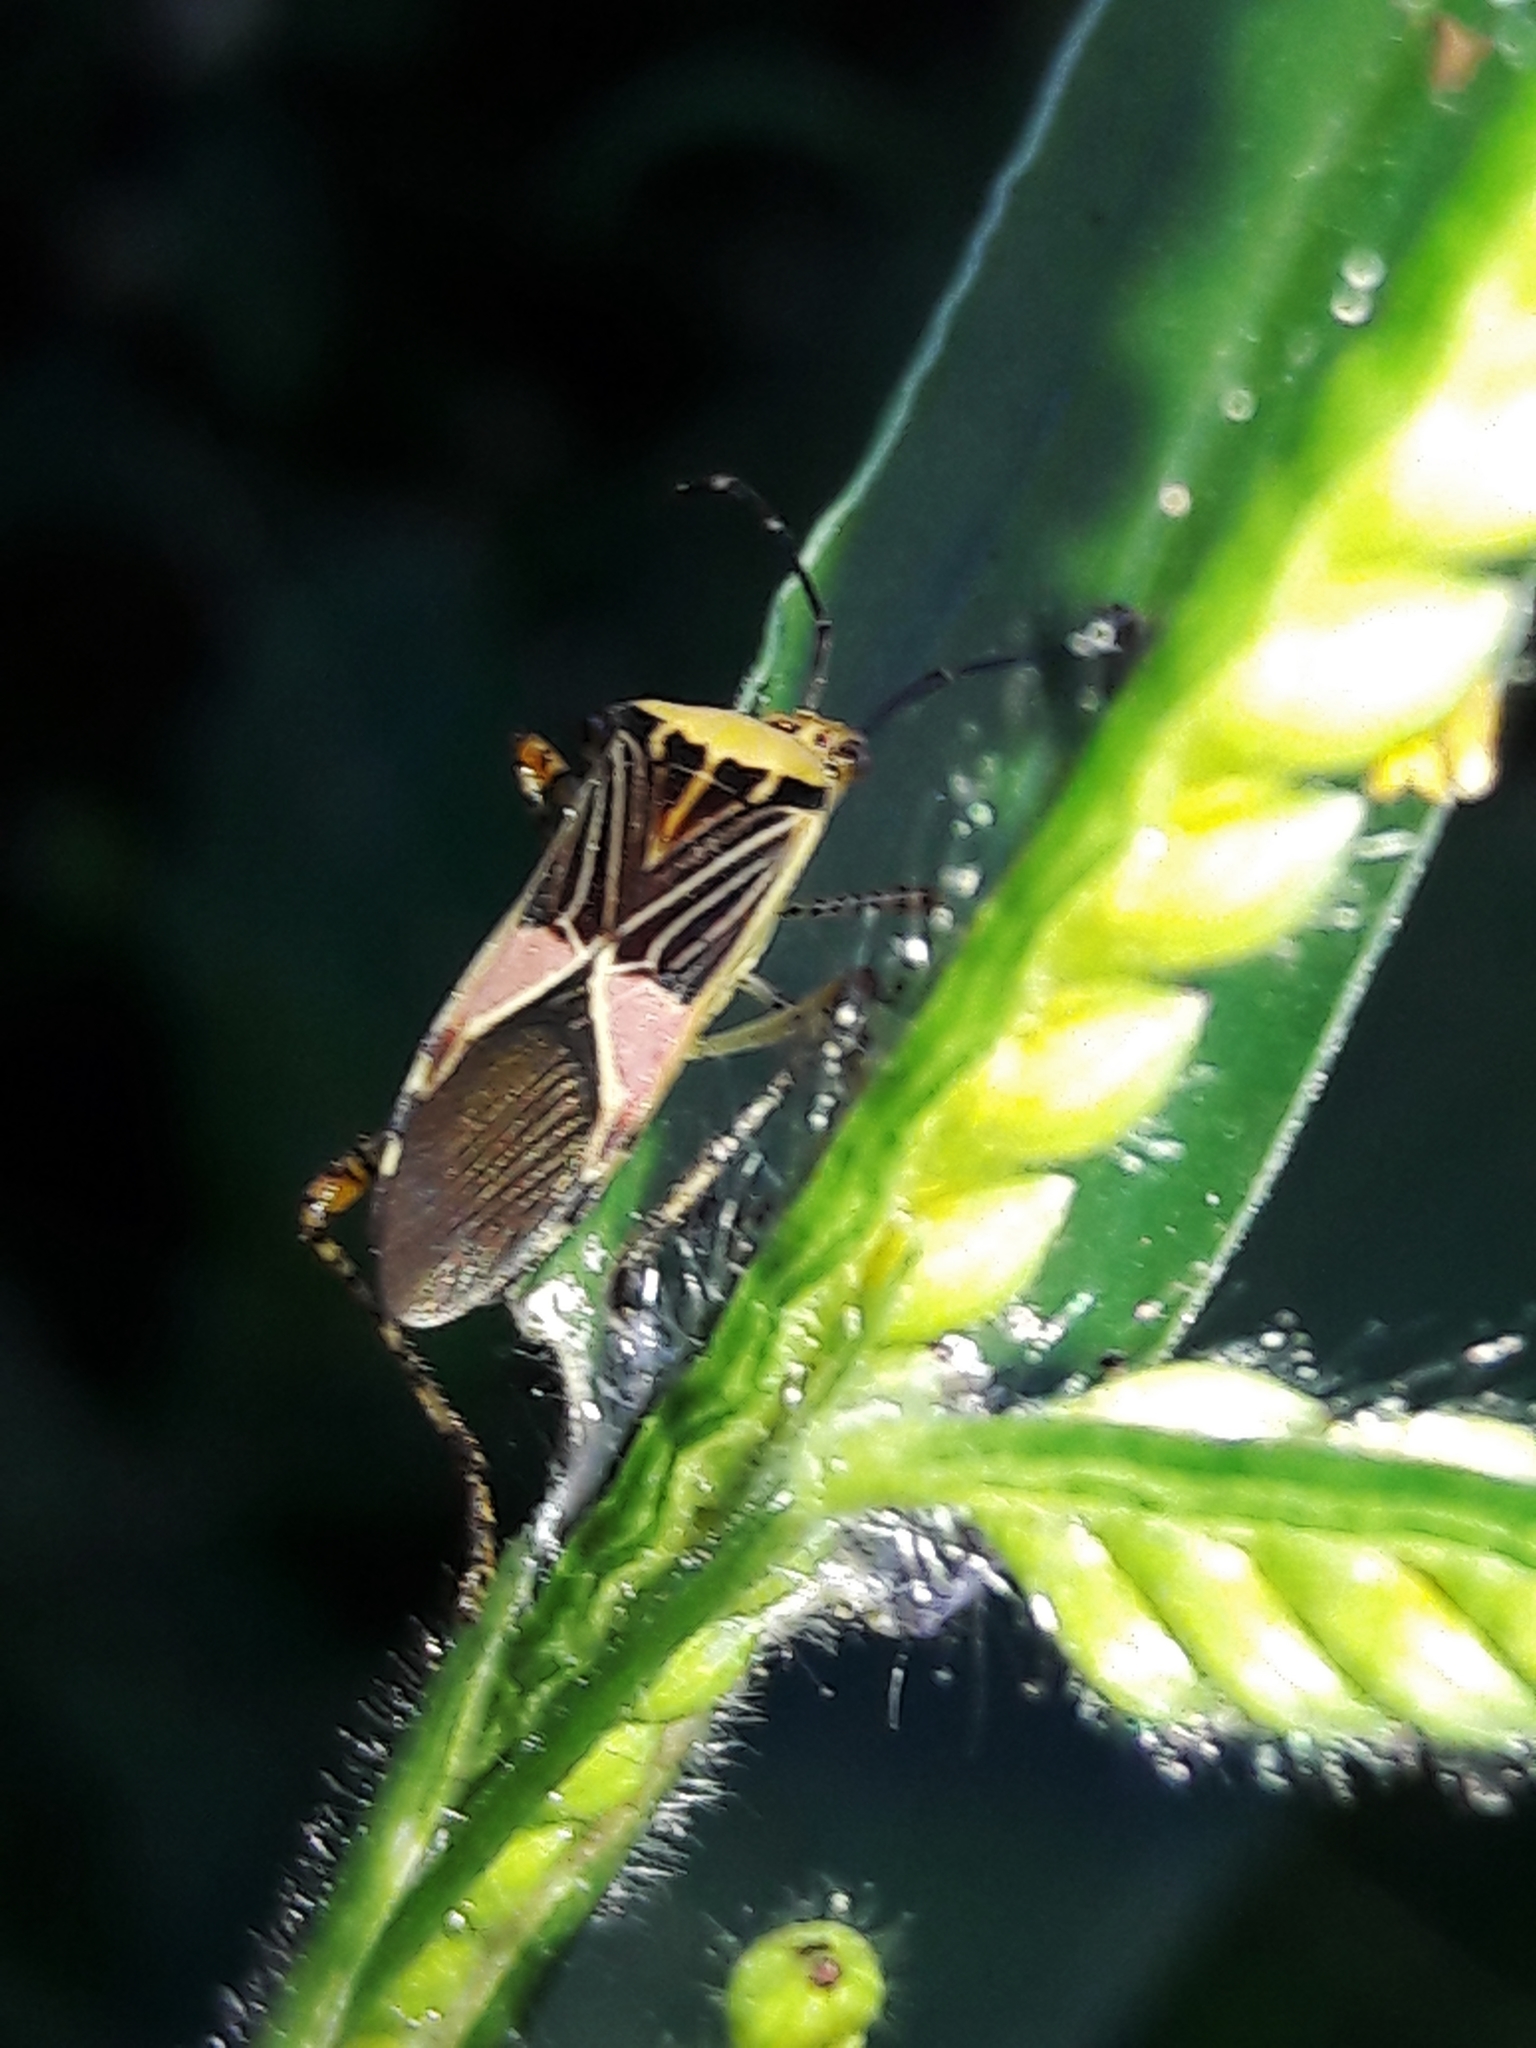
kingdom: Animalia
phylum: Arthropoda
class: Insecta
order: Hemiptera
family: Coreidae
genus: Hypselonotus
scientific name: Hypselonotus fulvus
